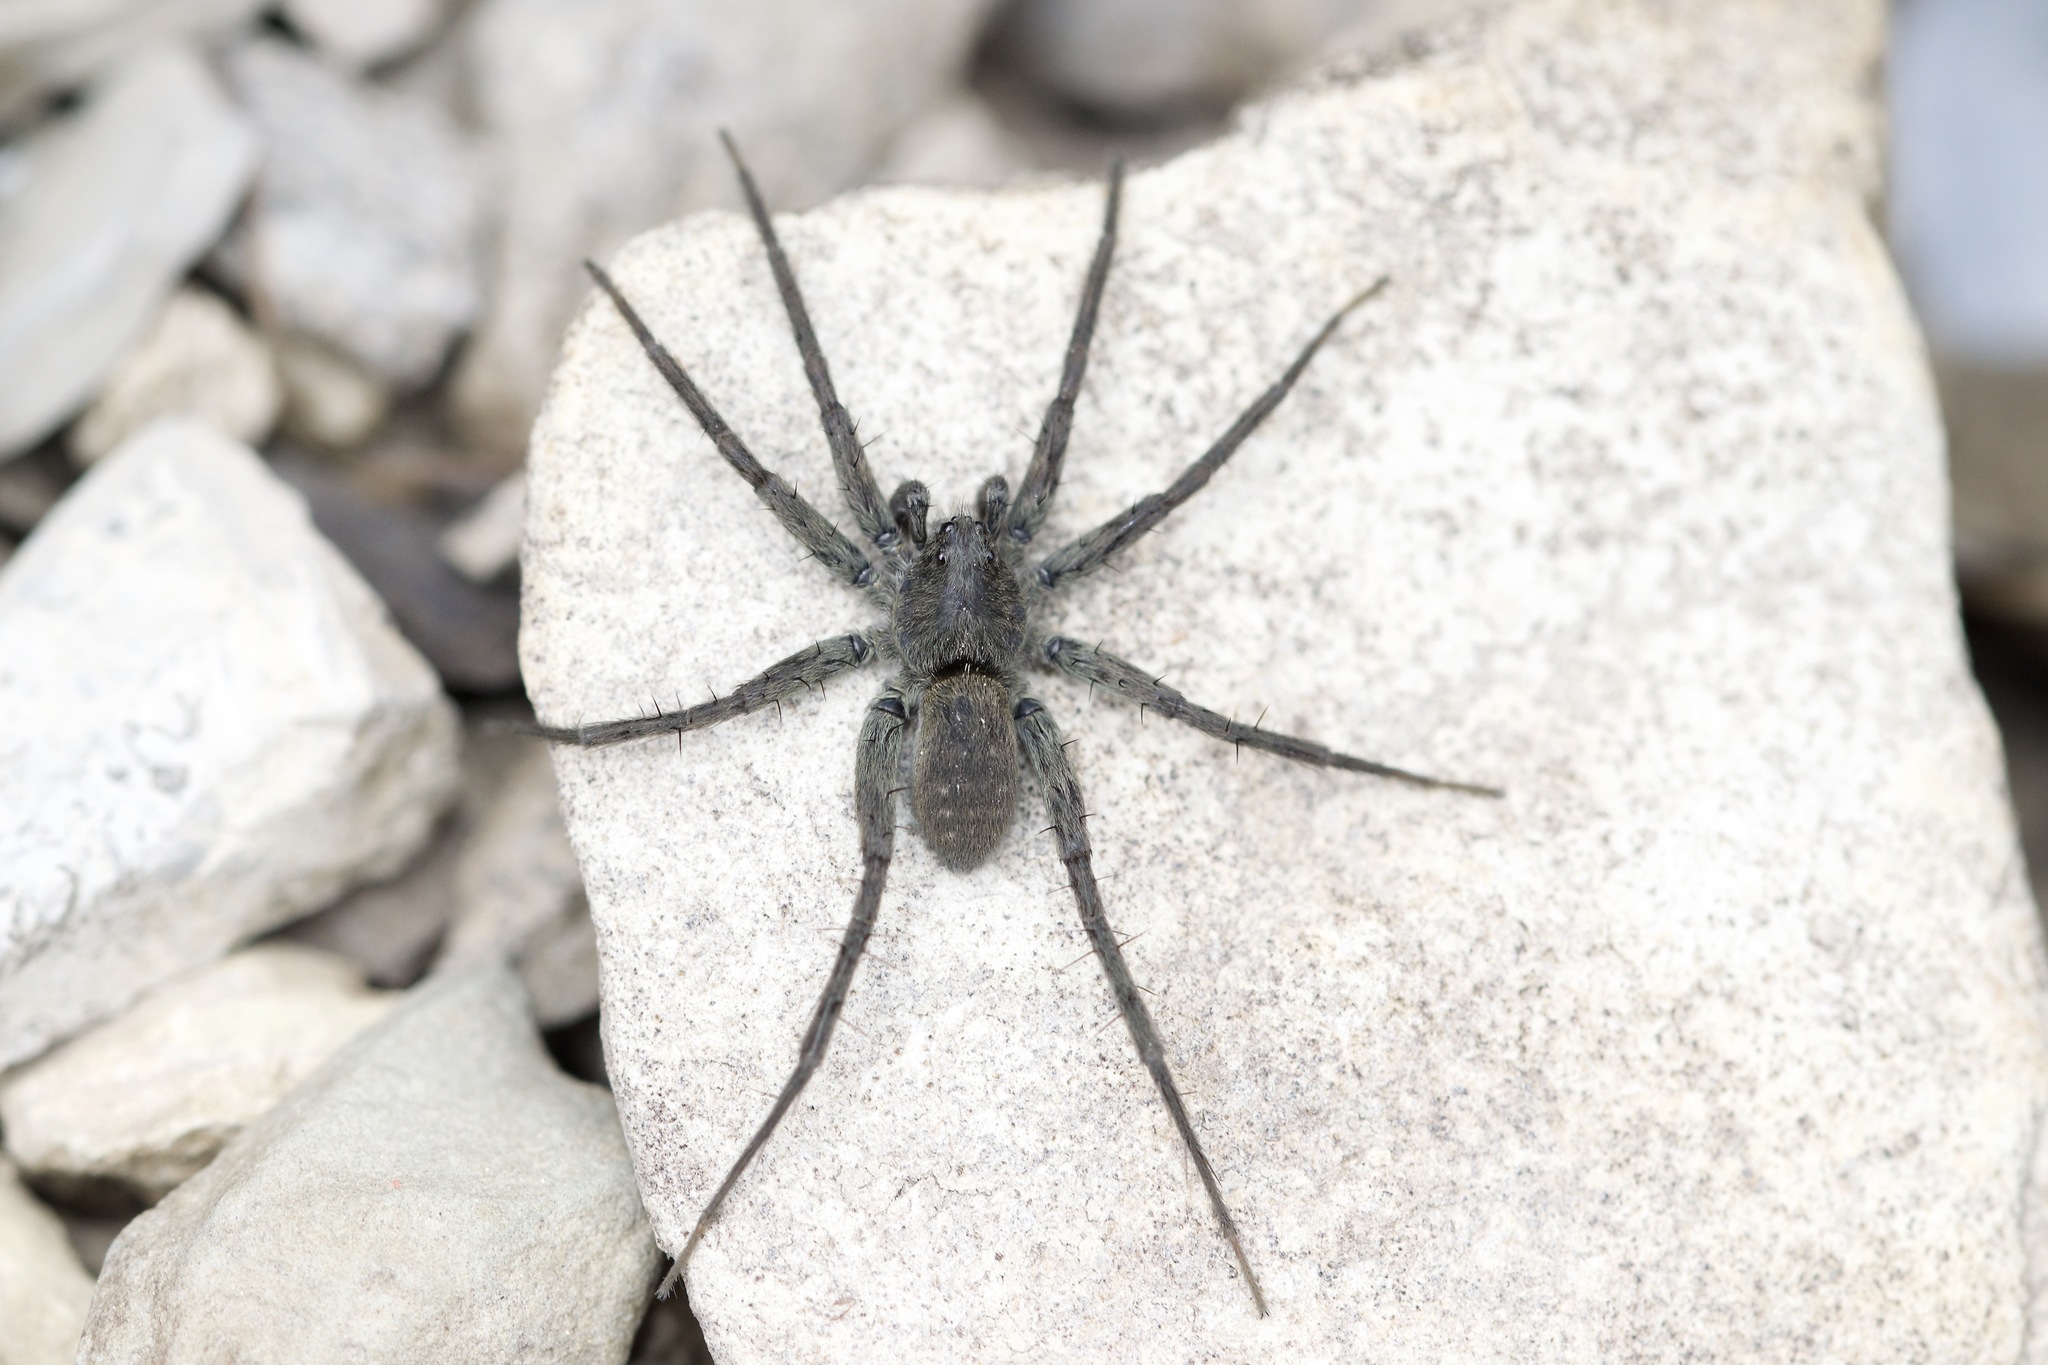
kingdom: Animalia
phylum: Arthropoda
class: Arachnida
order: Araneae
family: Lycosidae
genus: Pardosa
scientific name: Pardosa lapidicina
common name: Stone spider
